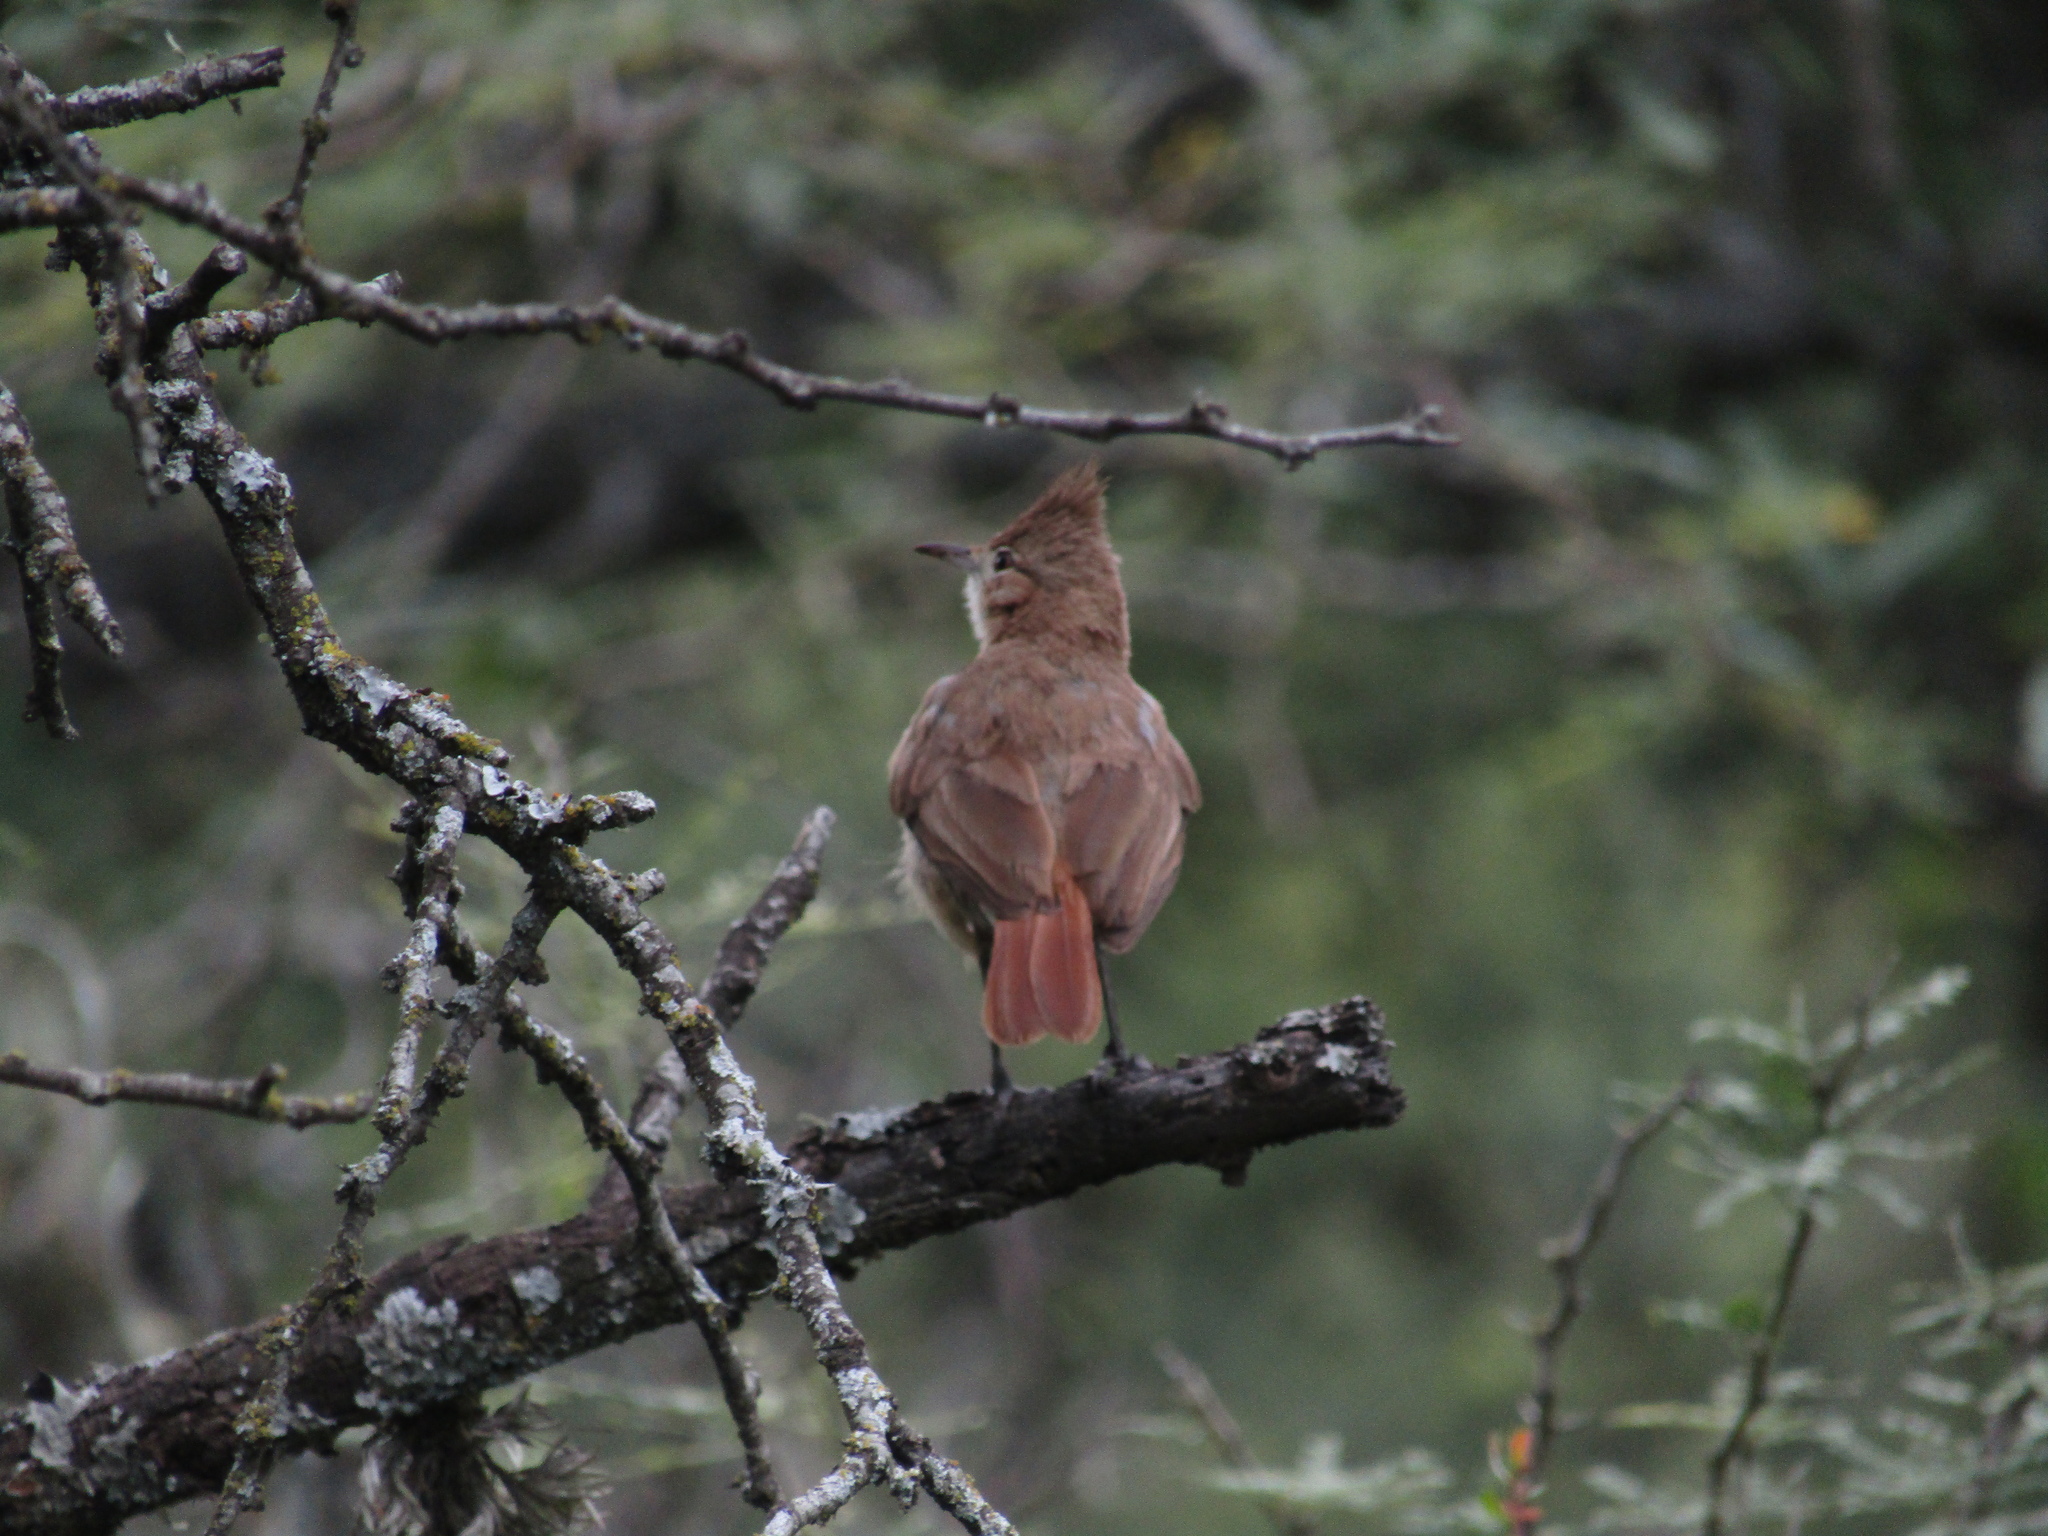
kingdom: Animalia
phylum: Chordata
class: Aves
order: Passeriformes
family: Furnariidae
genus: Furnarius
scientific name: Furnarius cristatus
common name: Crested hornero
